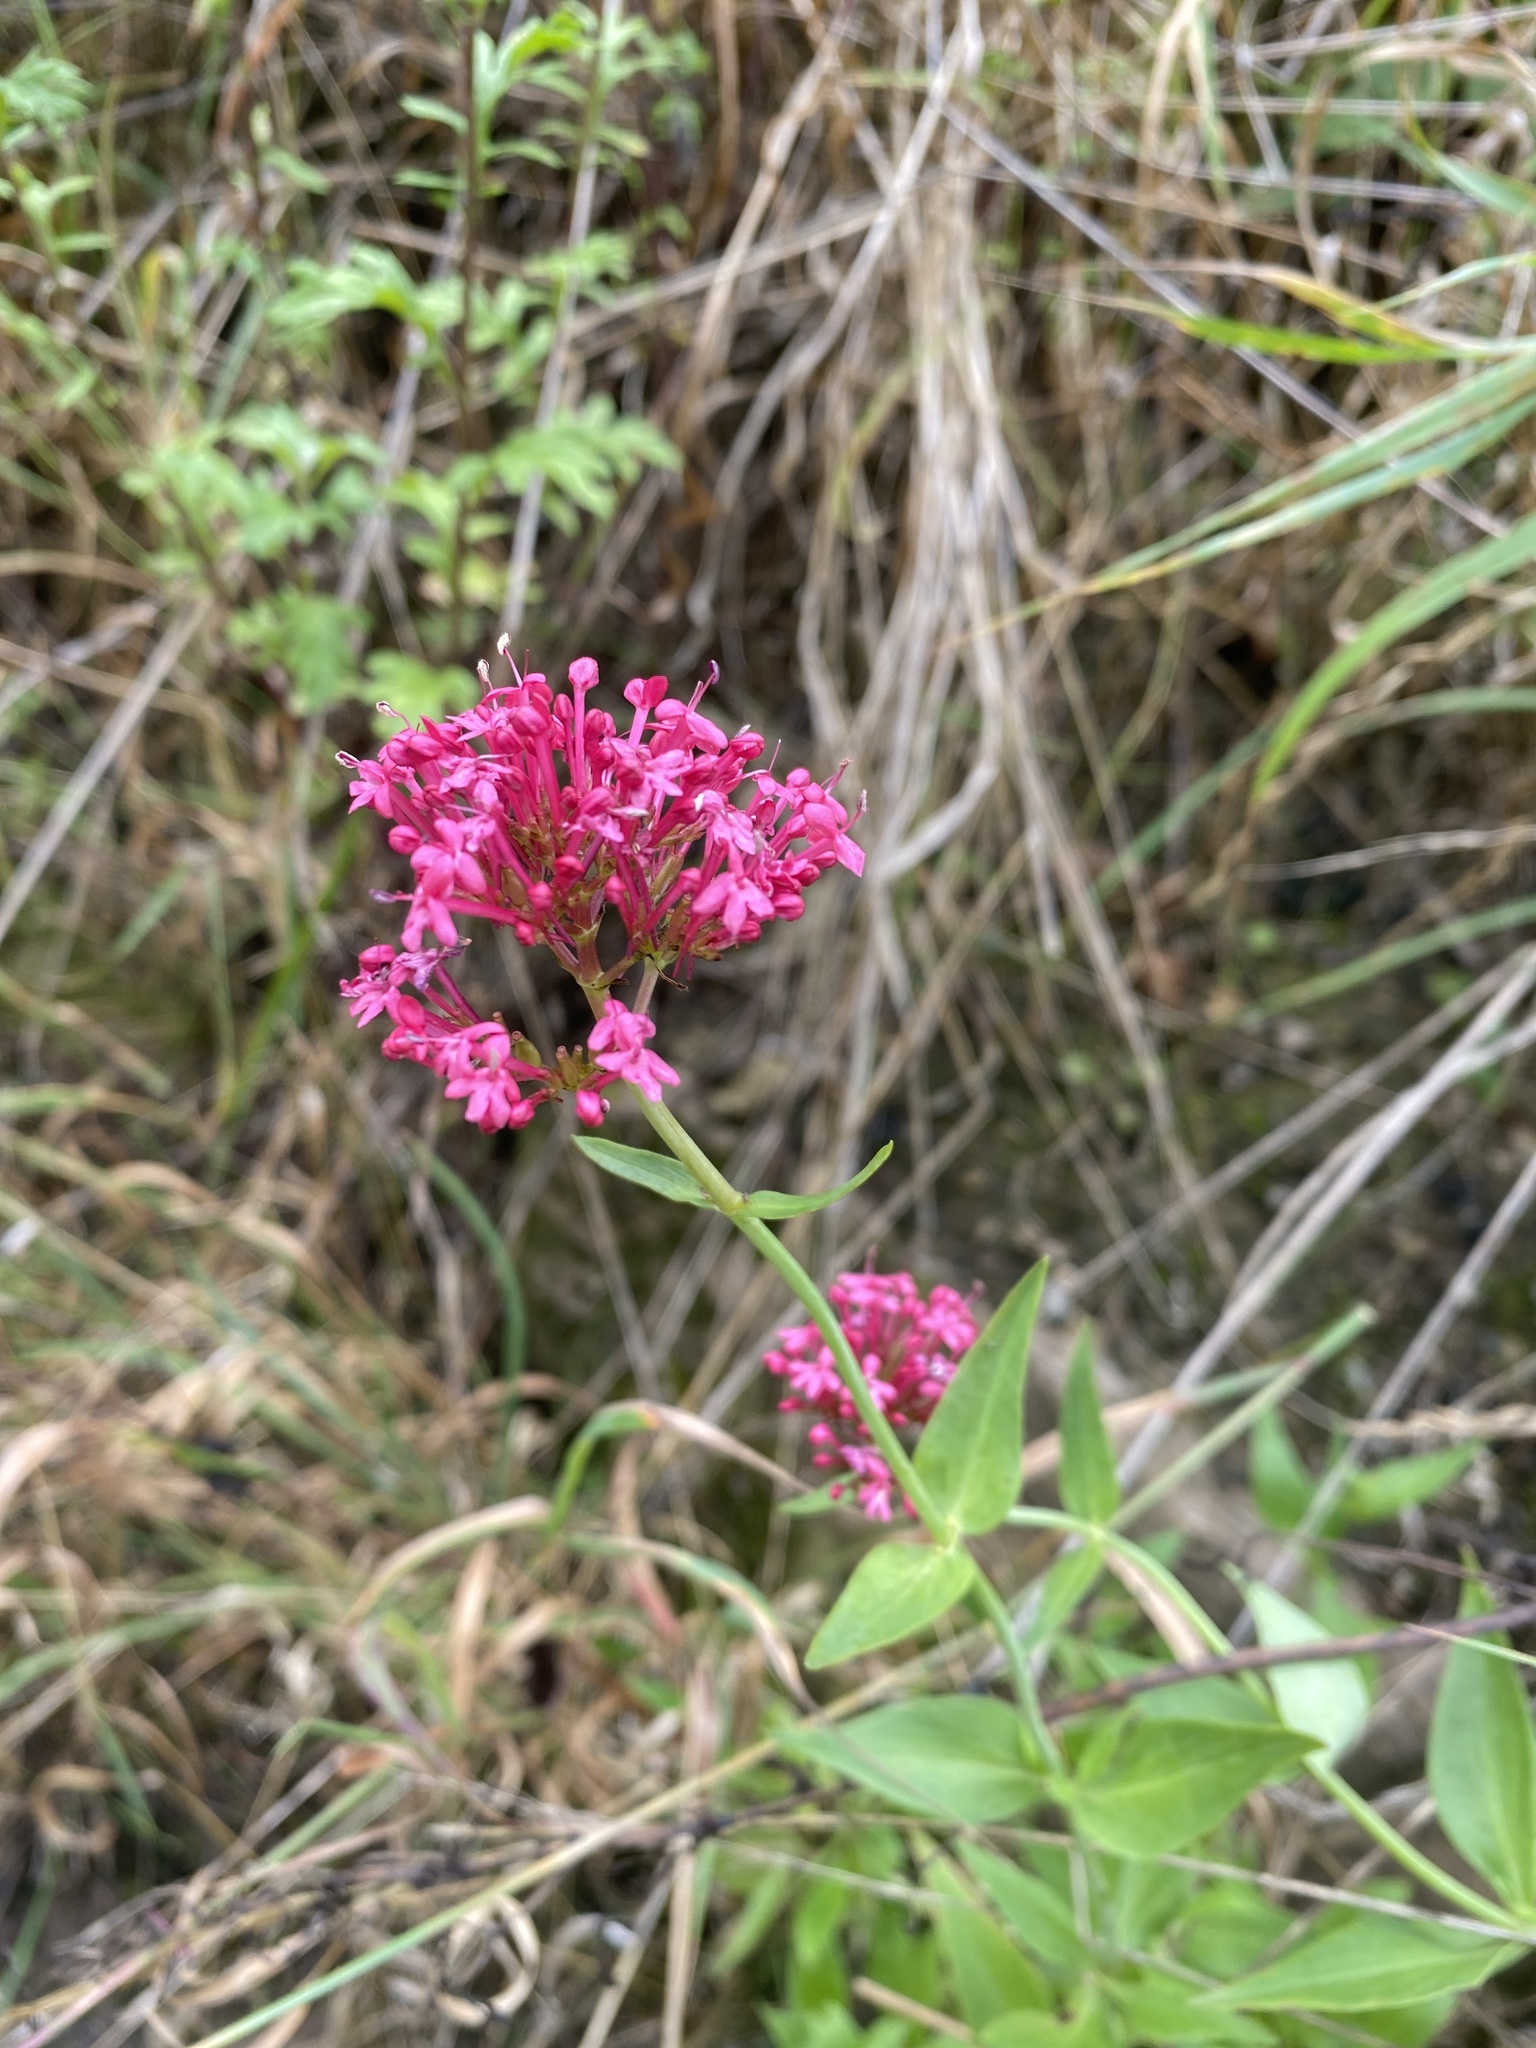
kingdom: Plantae
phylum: Tracheophyta
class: Magnoliopsida
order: Dipsacales
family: Caprifoliaceae
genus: Centranthus
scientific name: Centranthus ruber
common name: Red valerian
